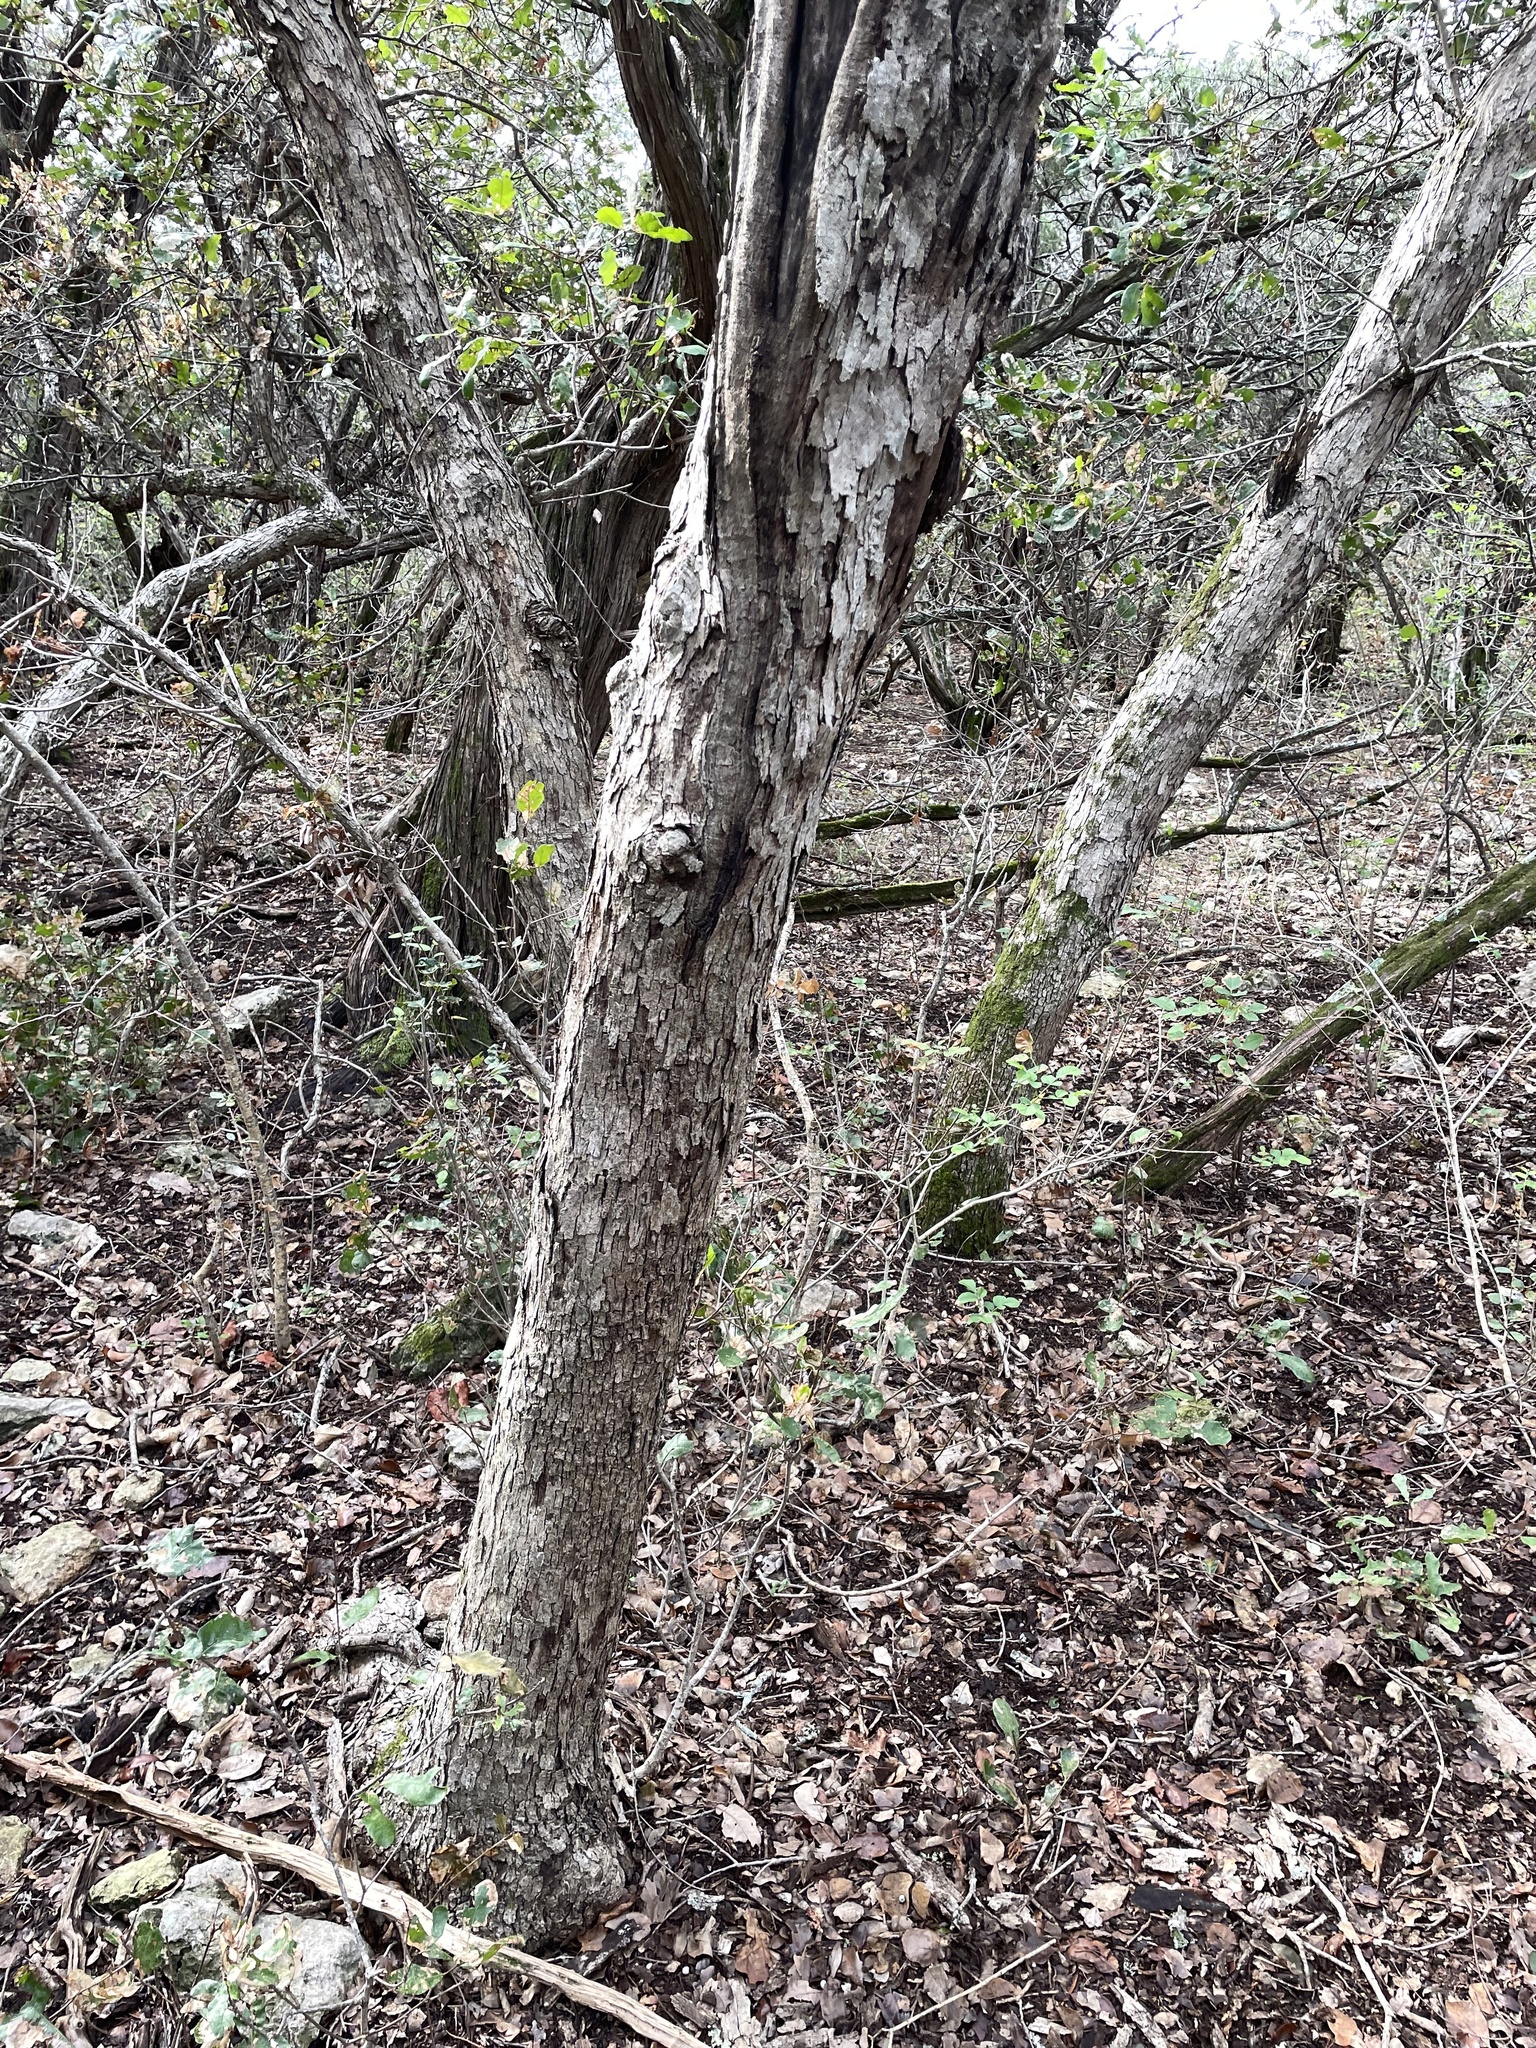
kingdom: Plantae
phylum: Tracheophyta
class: Magnoliopsida
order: Fagales
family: Fagaceae
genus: Quercus
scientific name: Quercus sinuata
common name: Durand oak
